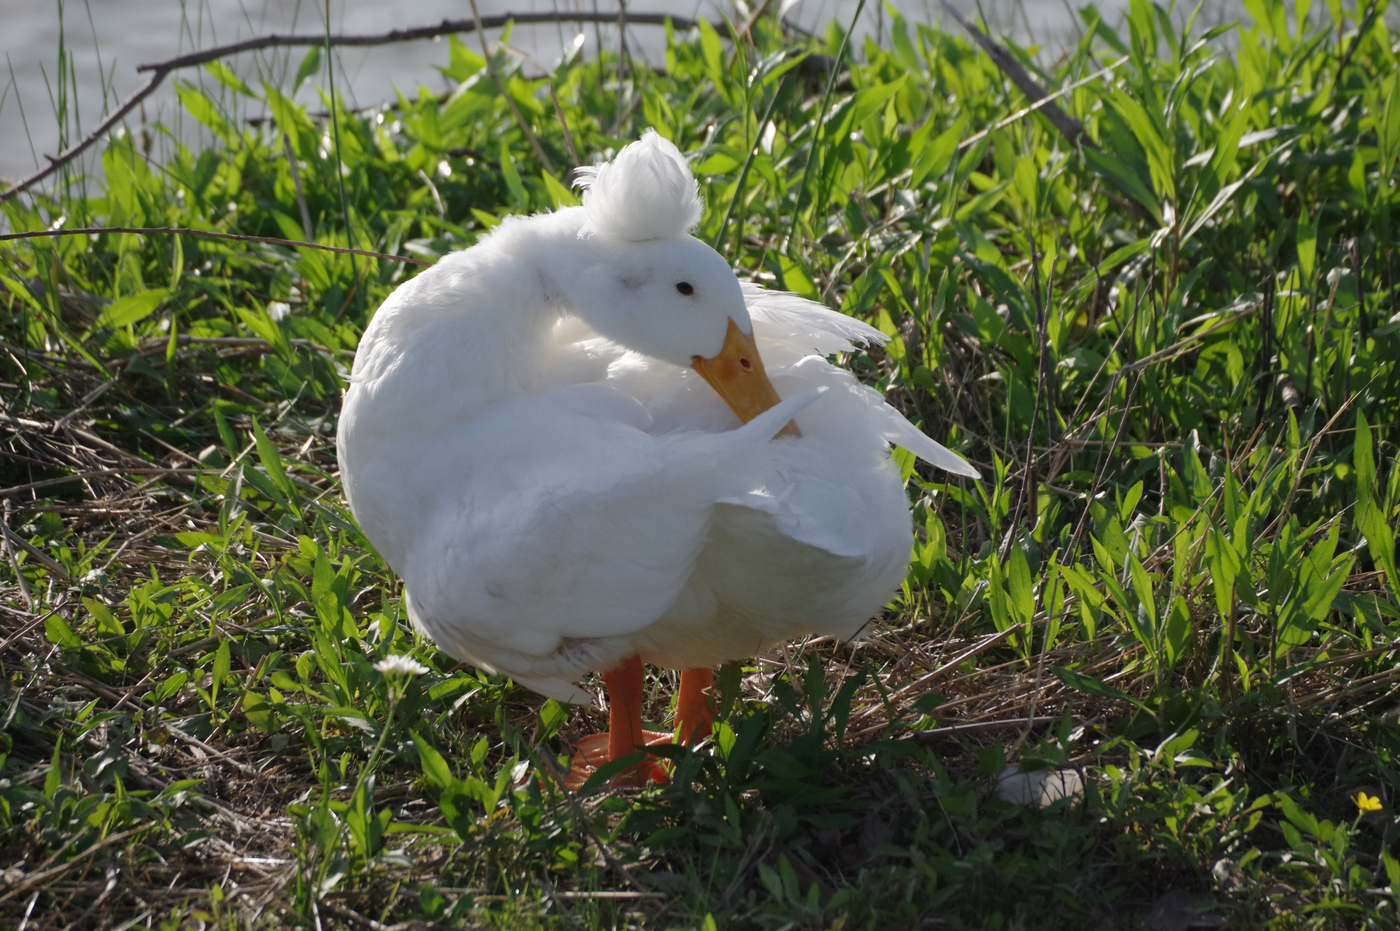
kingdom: Animalia
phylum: Chordata
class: Aves
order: Anseriformes
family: Anatidae
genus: Anas
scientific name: Anas platyrhynchos
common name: Mallard
